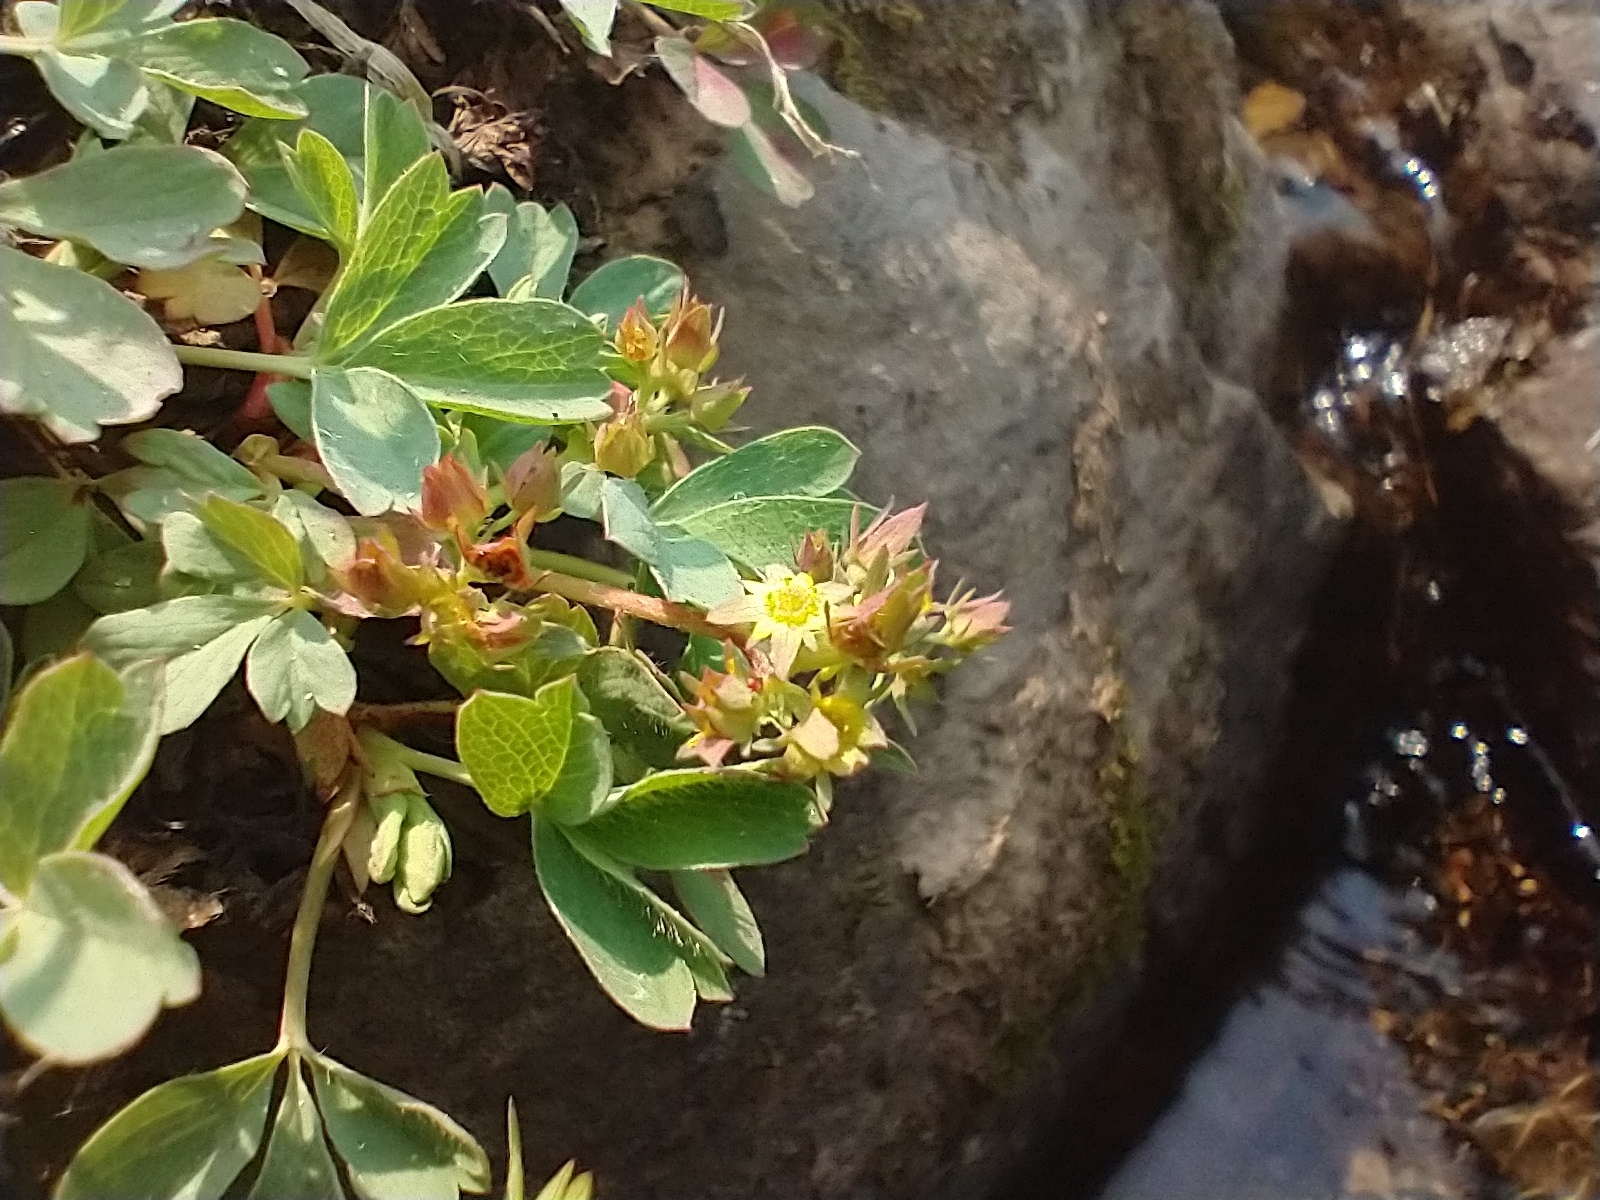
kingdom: Plantae
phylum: Tracheophyta
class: Magnoliopsida
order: Rosales
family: Rosaceae
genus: Sibbaldia
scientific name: Sibbaldia procumbens
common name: Creeping sibbaldia
